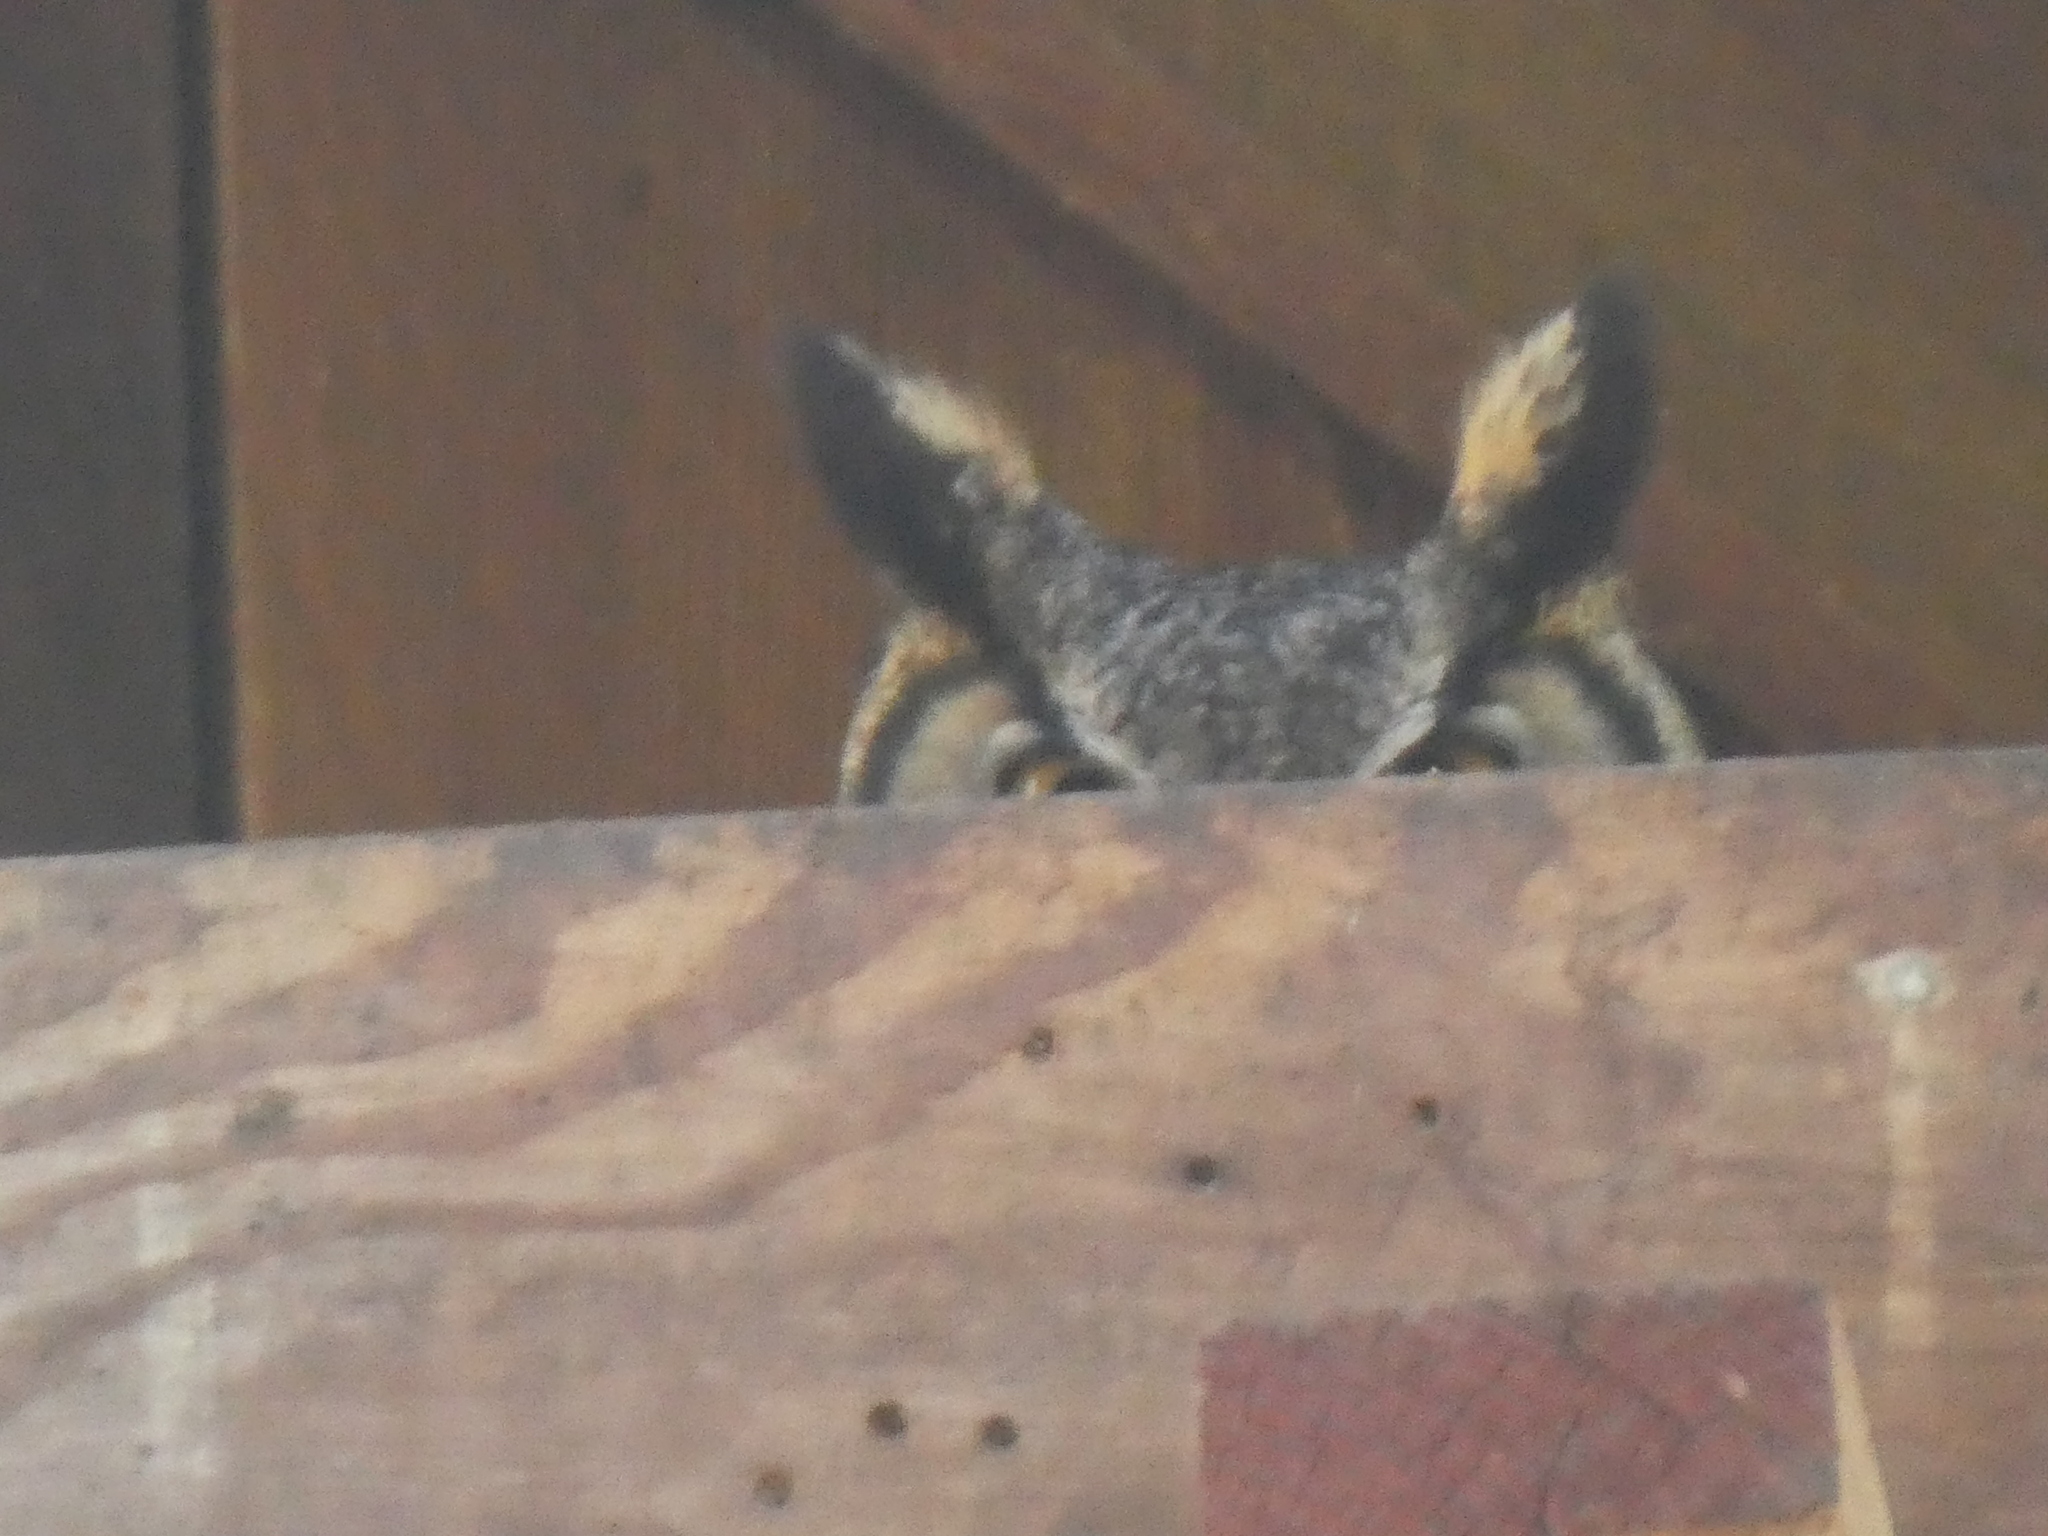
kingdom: Animalia
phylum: Chordata
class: Aves
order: Strigiformes
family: Strigidae
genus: Bubo
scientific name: Bubo virginianus
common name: Great horned owl
